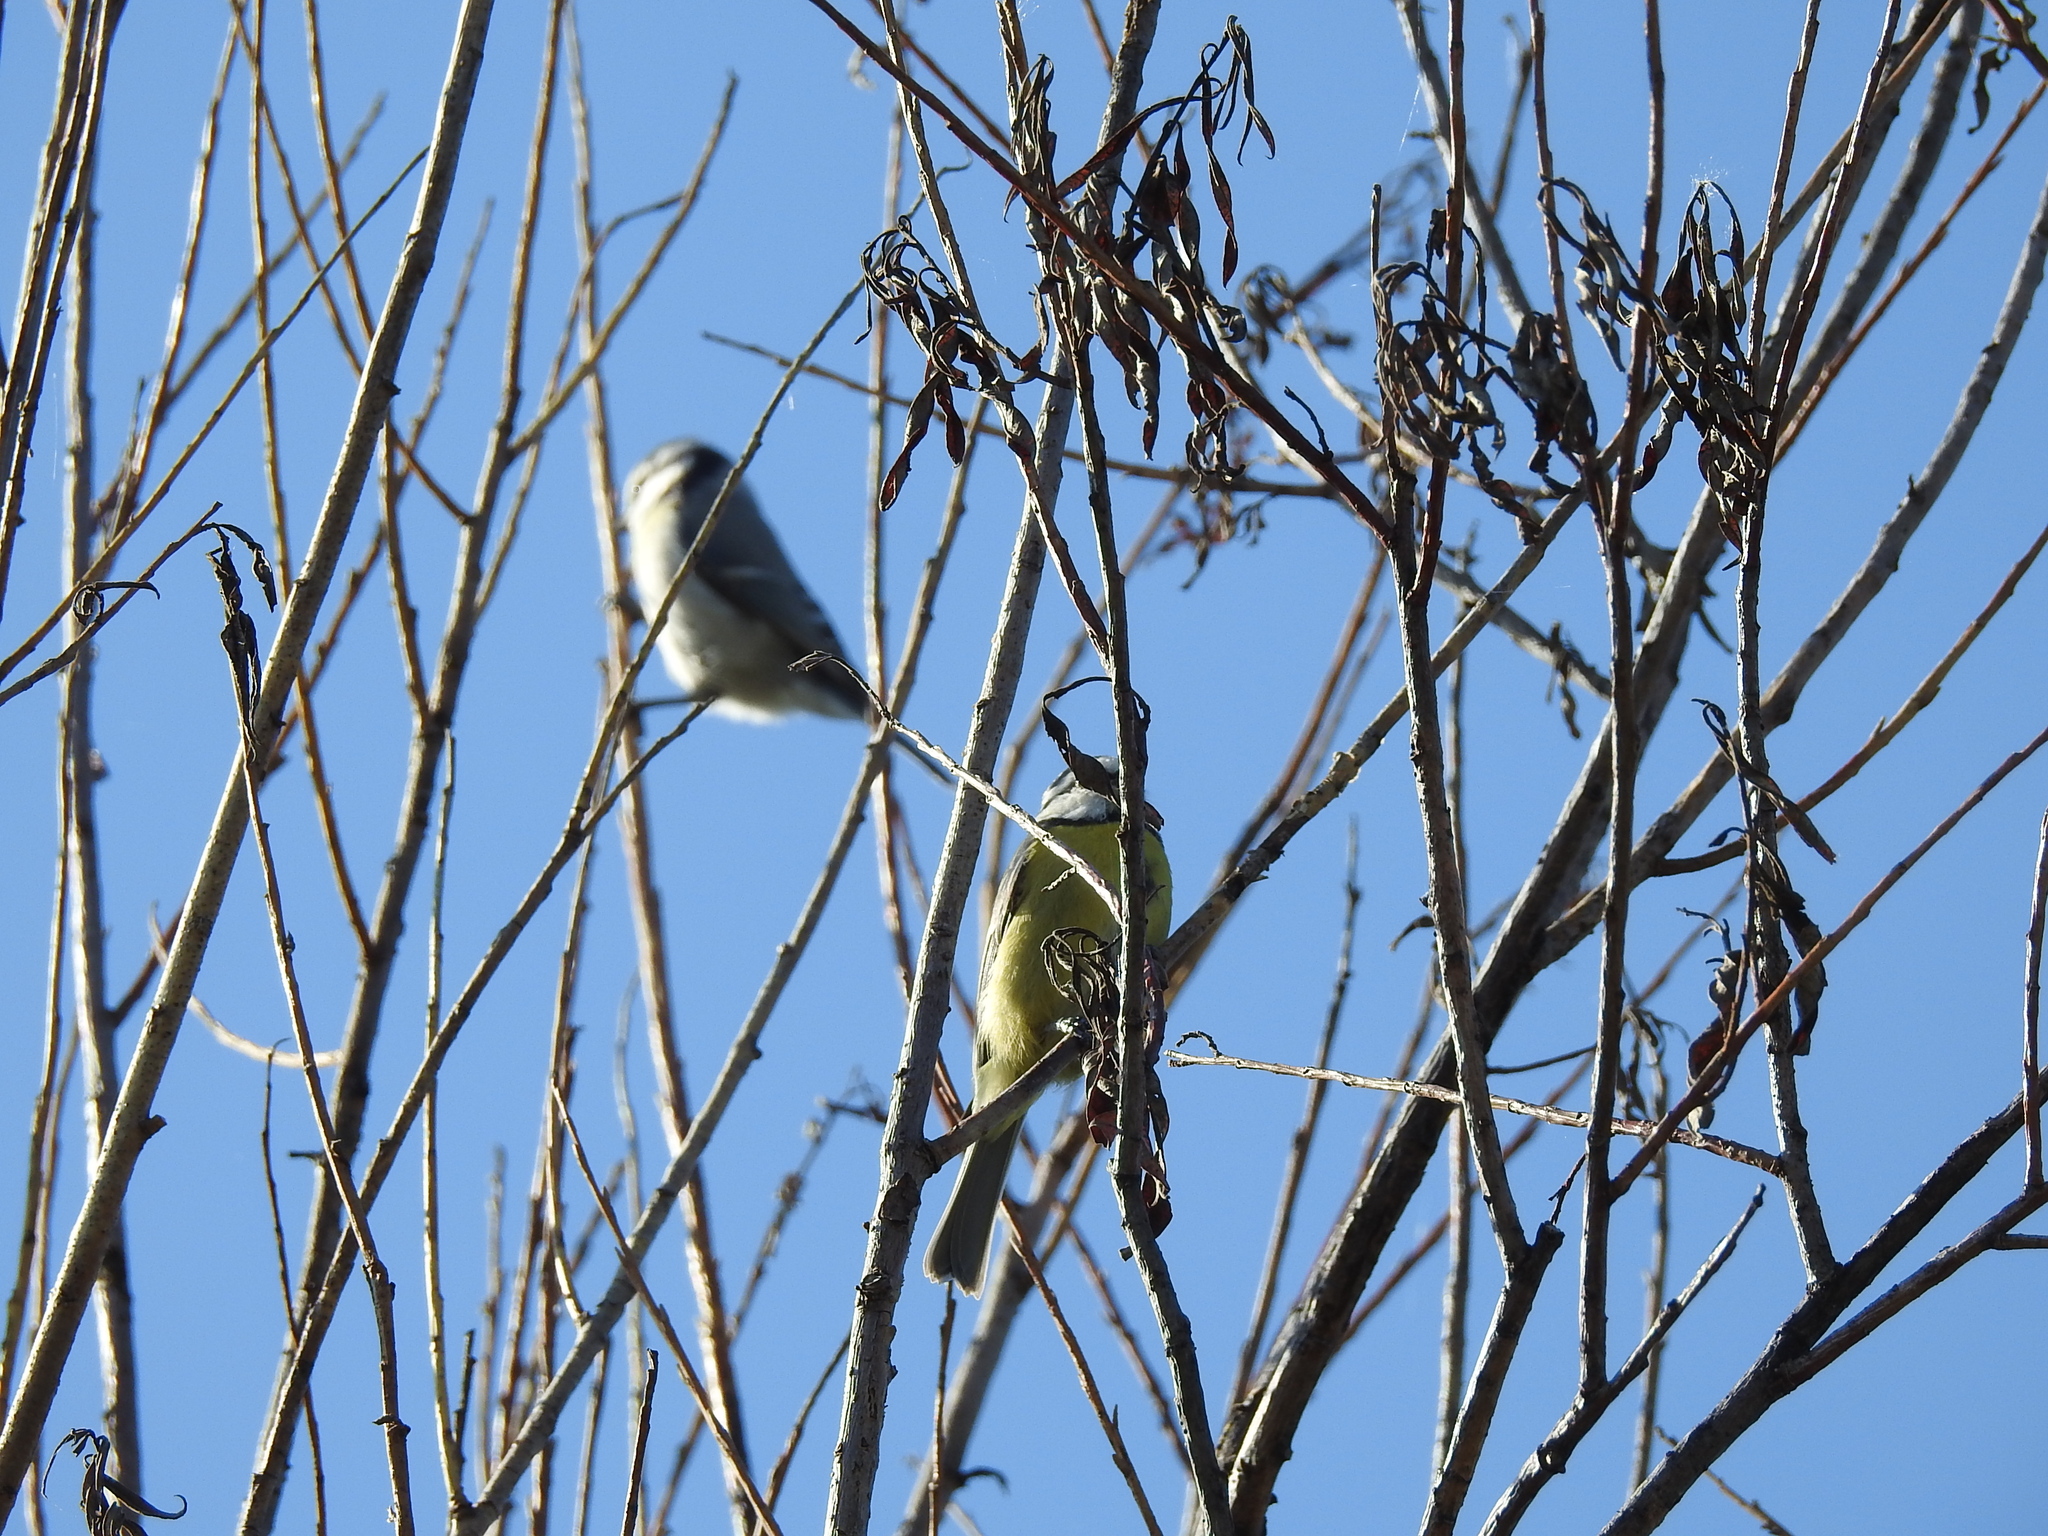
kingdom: Animalia
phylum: Chordata
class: Aves
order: Passeriformes
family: Paridae
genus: Cyanistes
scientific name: Cyanistes caeruleus
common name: Eurasian blue tit
